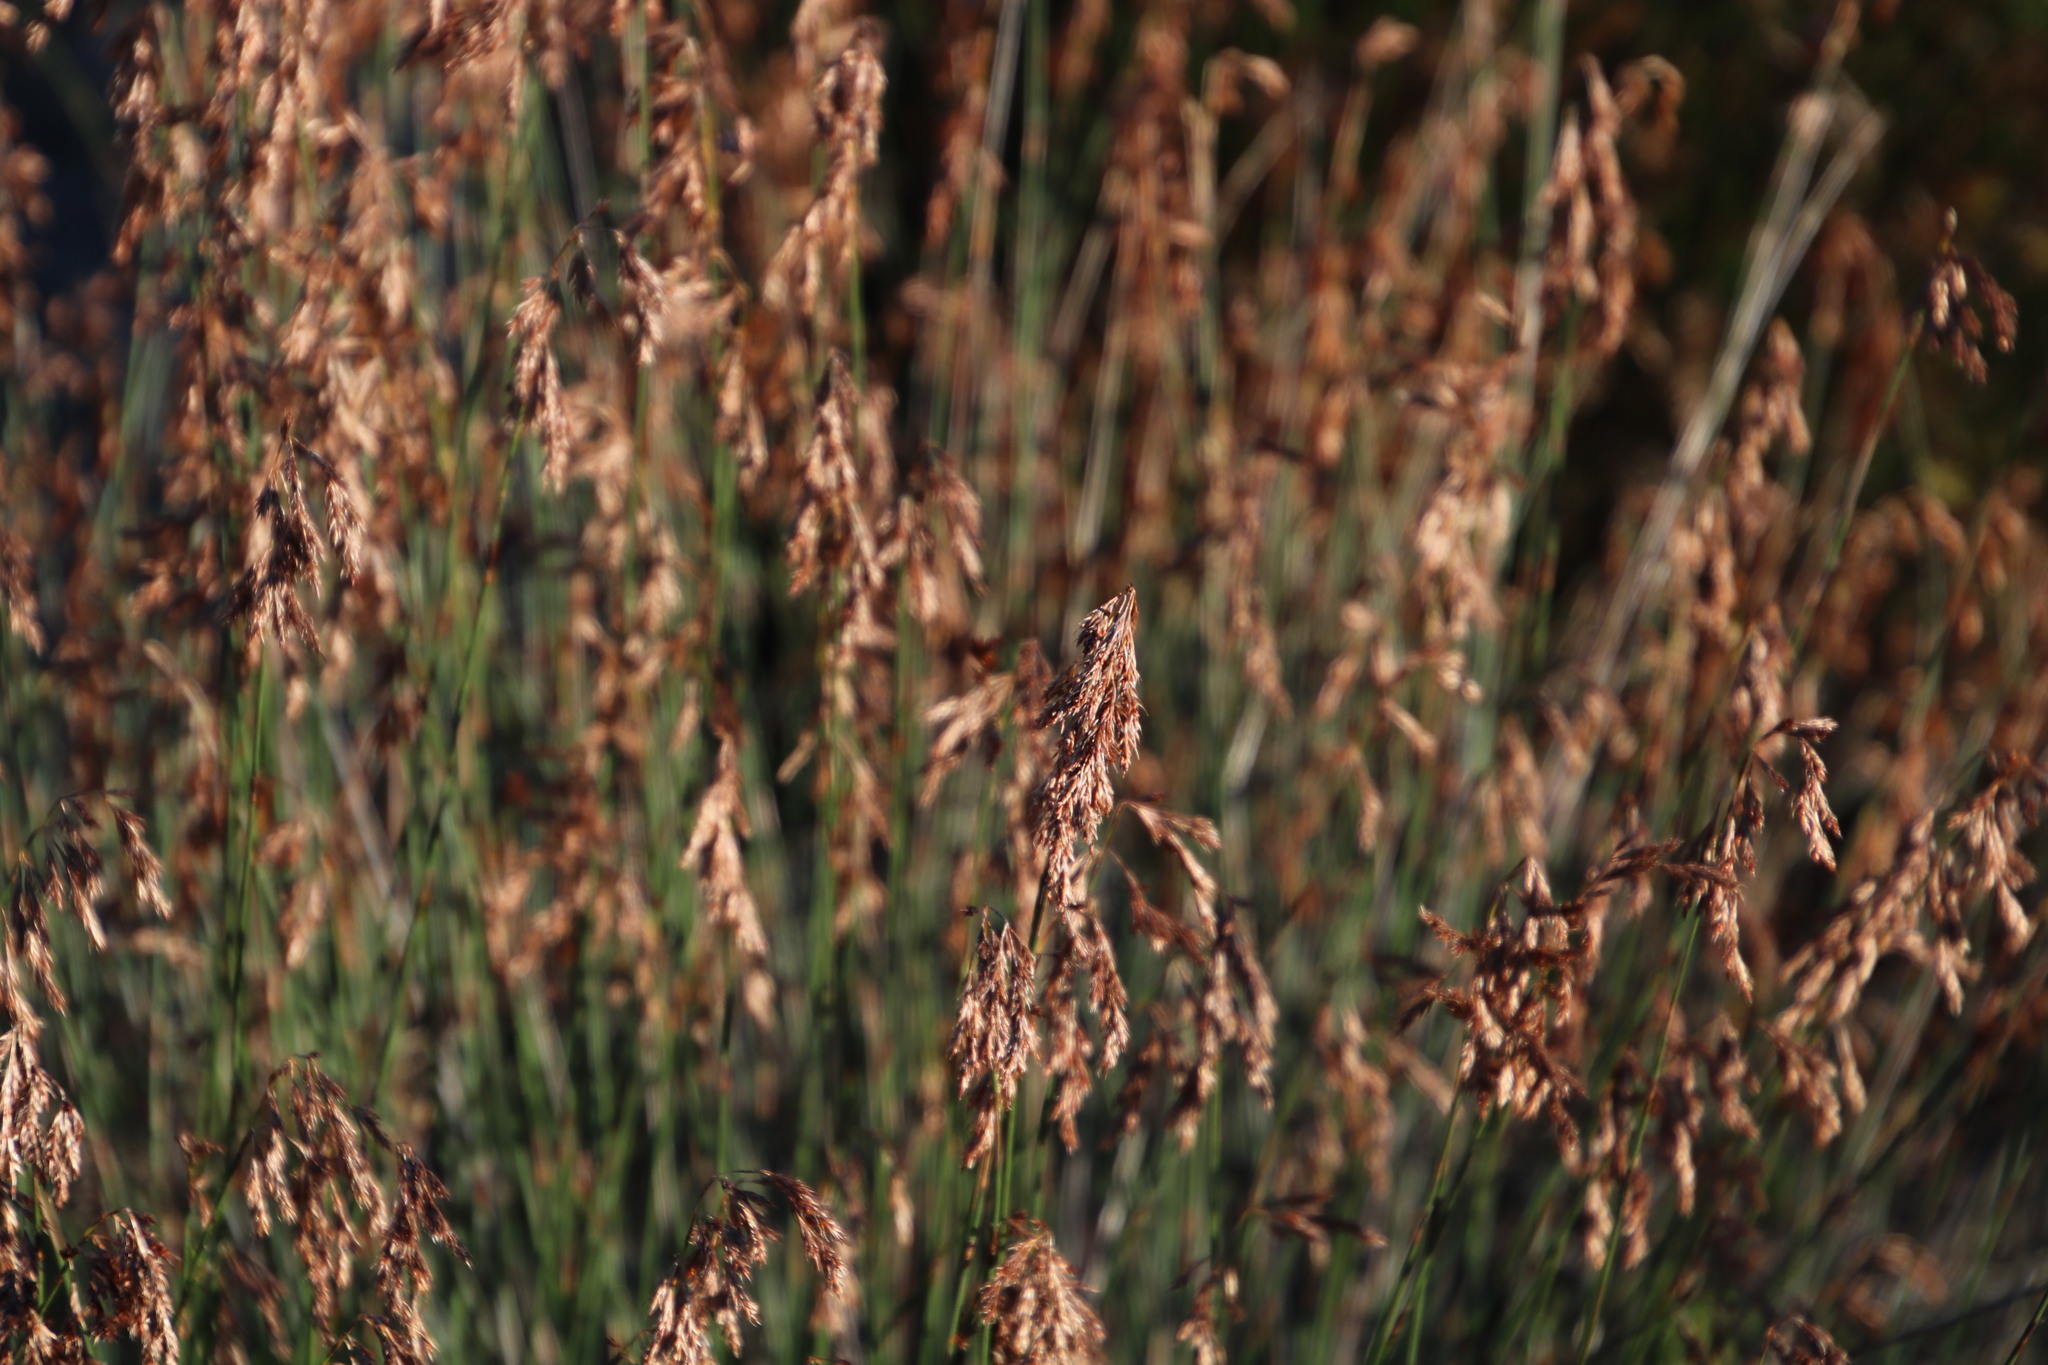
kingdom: Plantae
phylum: Tracheophyta
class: Liliopsida
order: Poales
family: Restionaceae
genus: Thamnochortus
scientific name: Thamnochortus bachmannii
